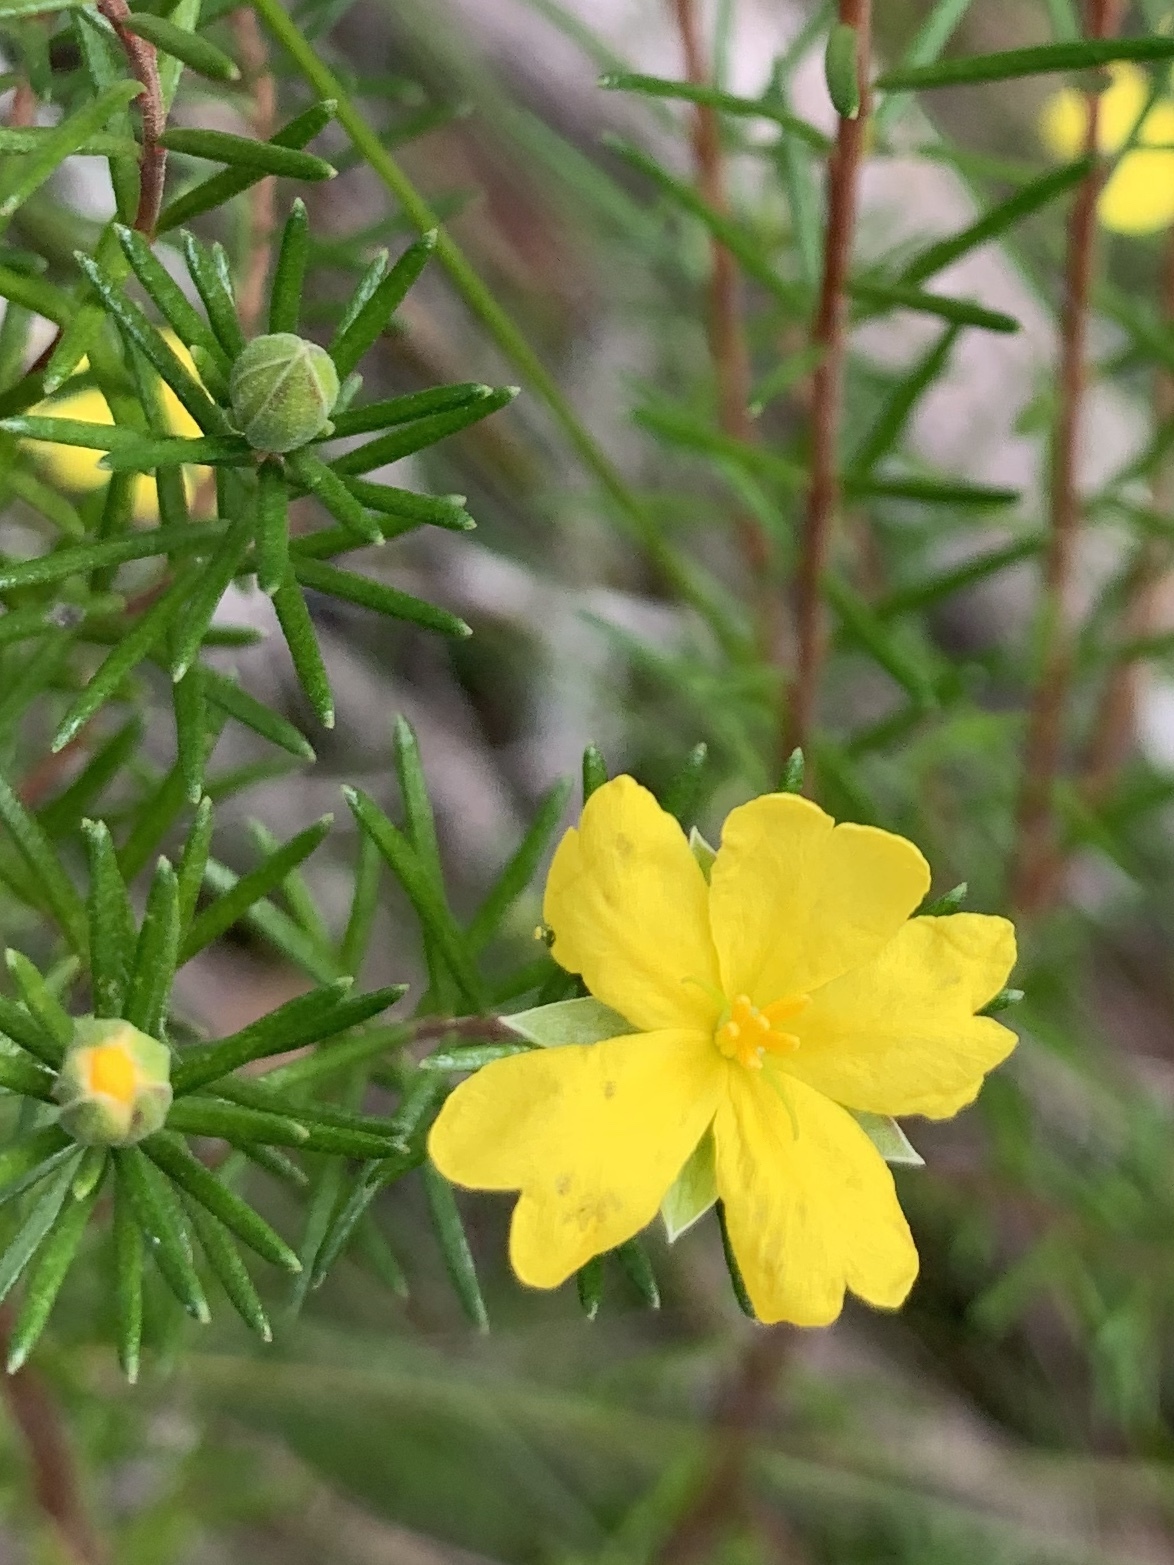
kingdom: Plantae
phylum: Tracheophyta
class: Magnoliopsida
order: Dilleniales
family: Dilleniaceae
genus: Hibbertia
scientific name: Hibbertia stricta
